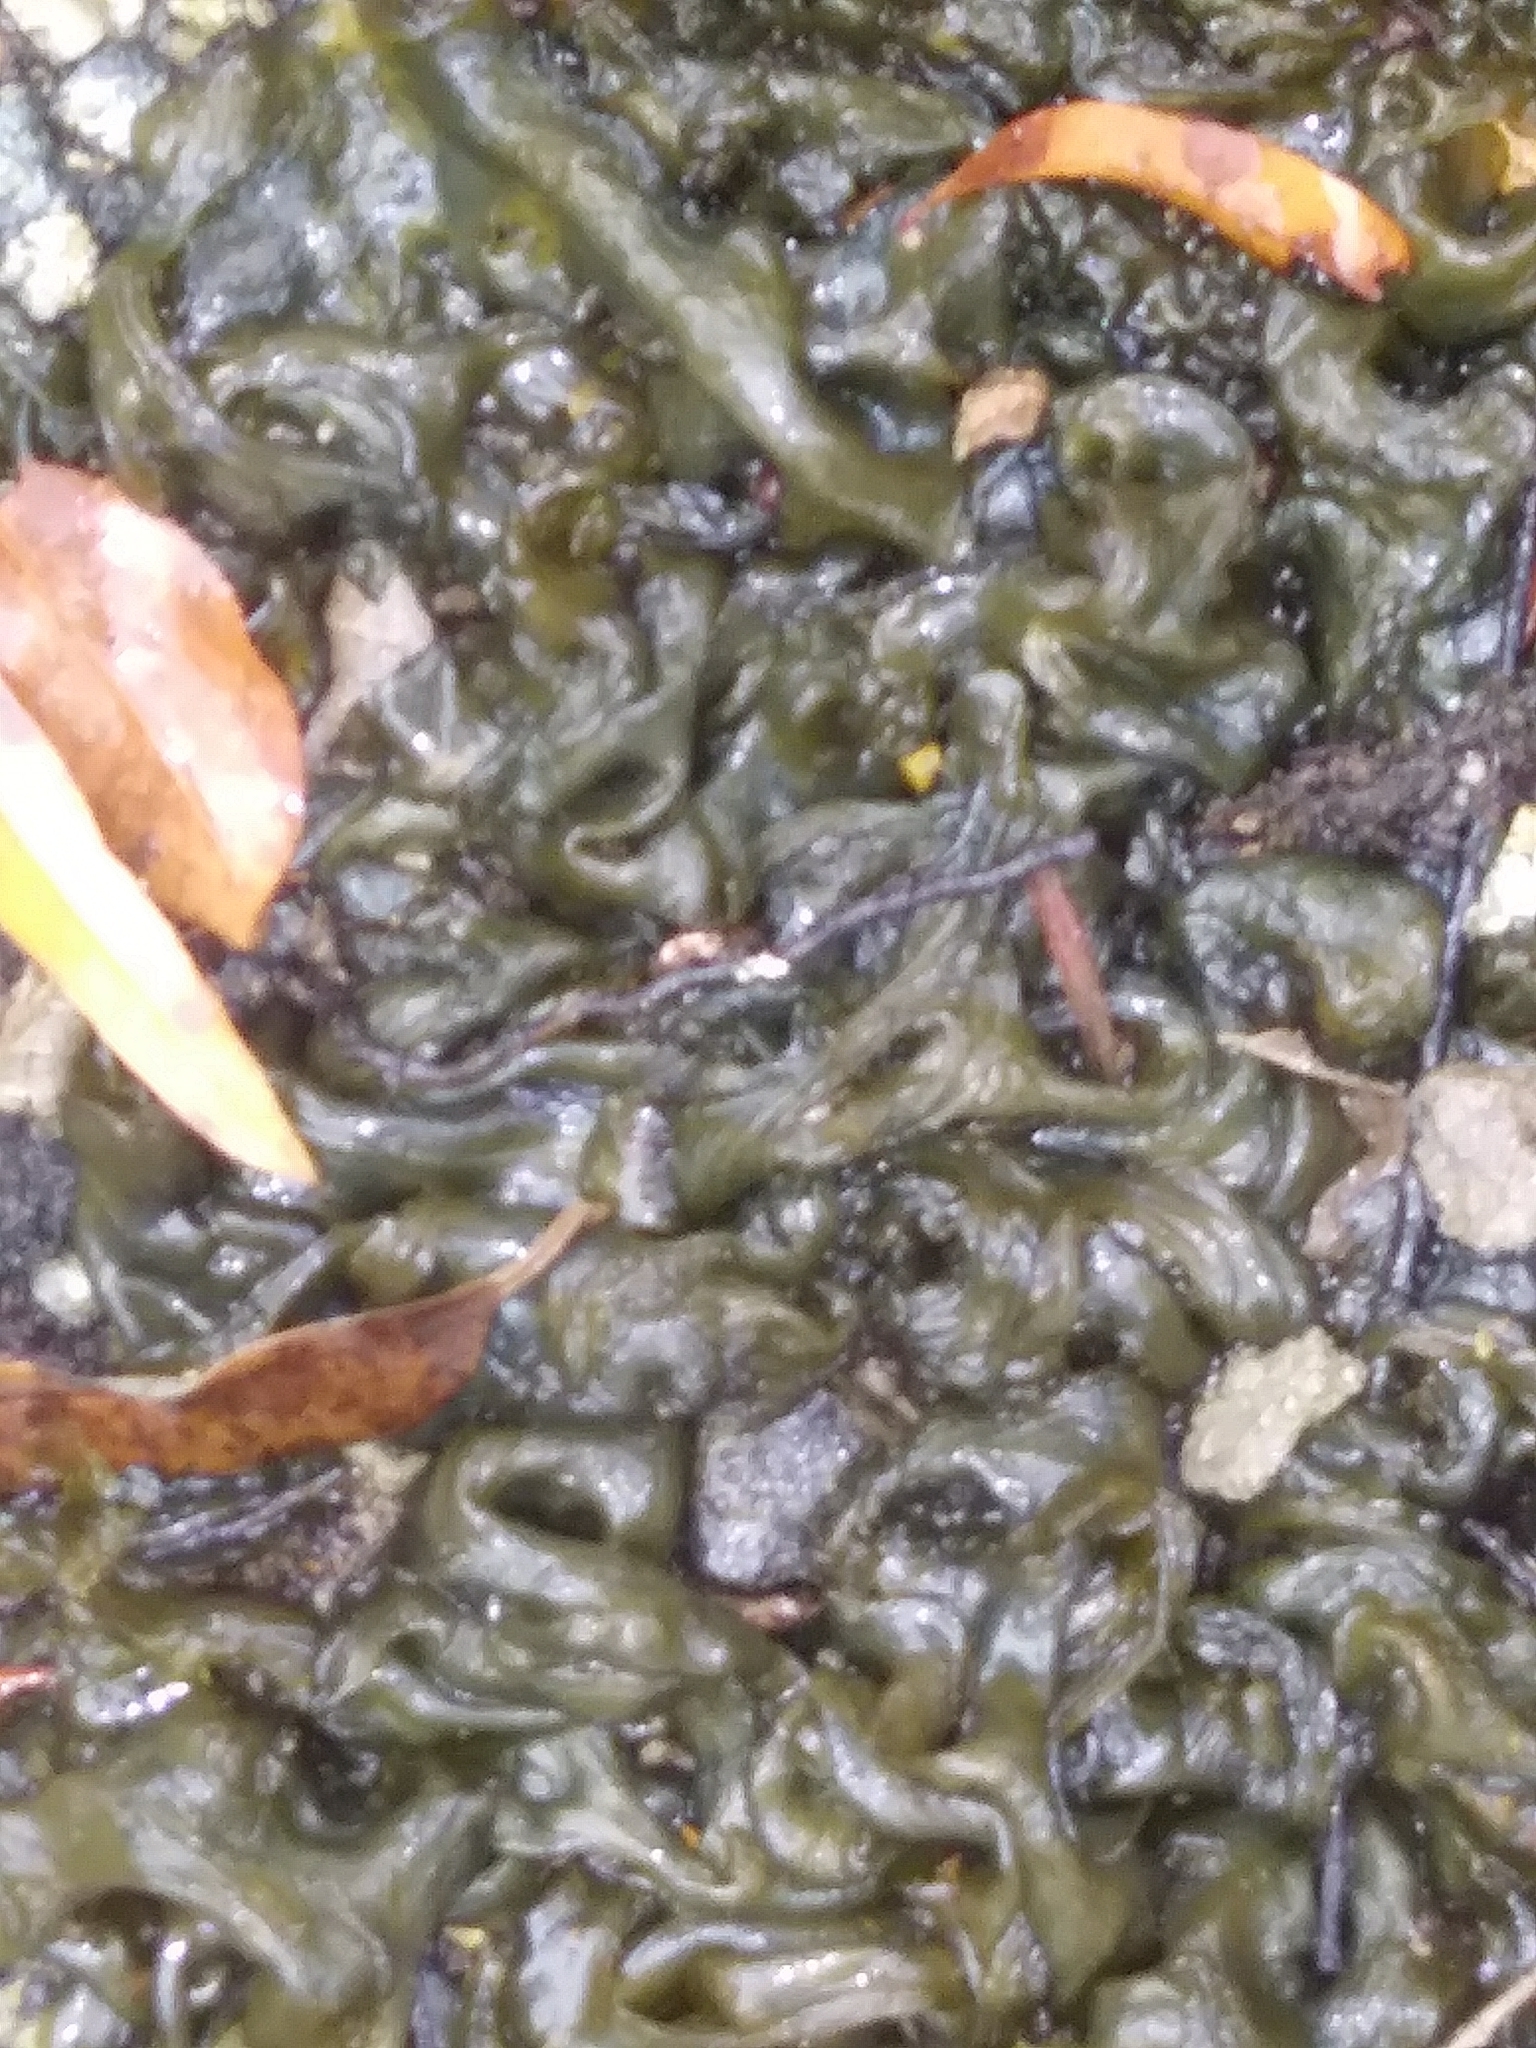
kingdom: Bacteria
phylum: Cyanobacteria
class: Cyanobacteriia
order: Cyanobacteriales
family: Nostocaceae
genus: Nostoc
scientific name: Nostoc commune
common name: Star jelly
